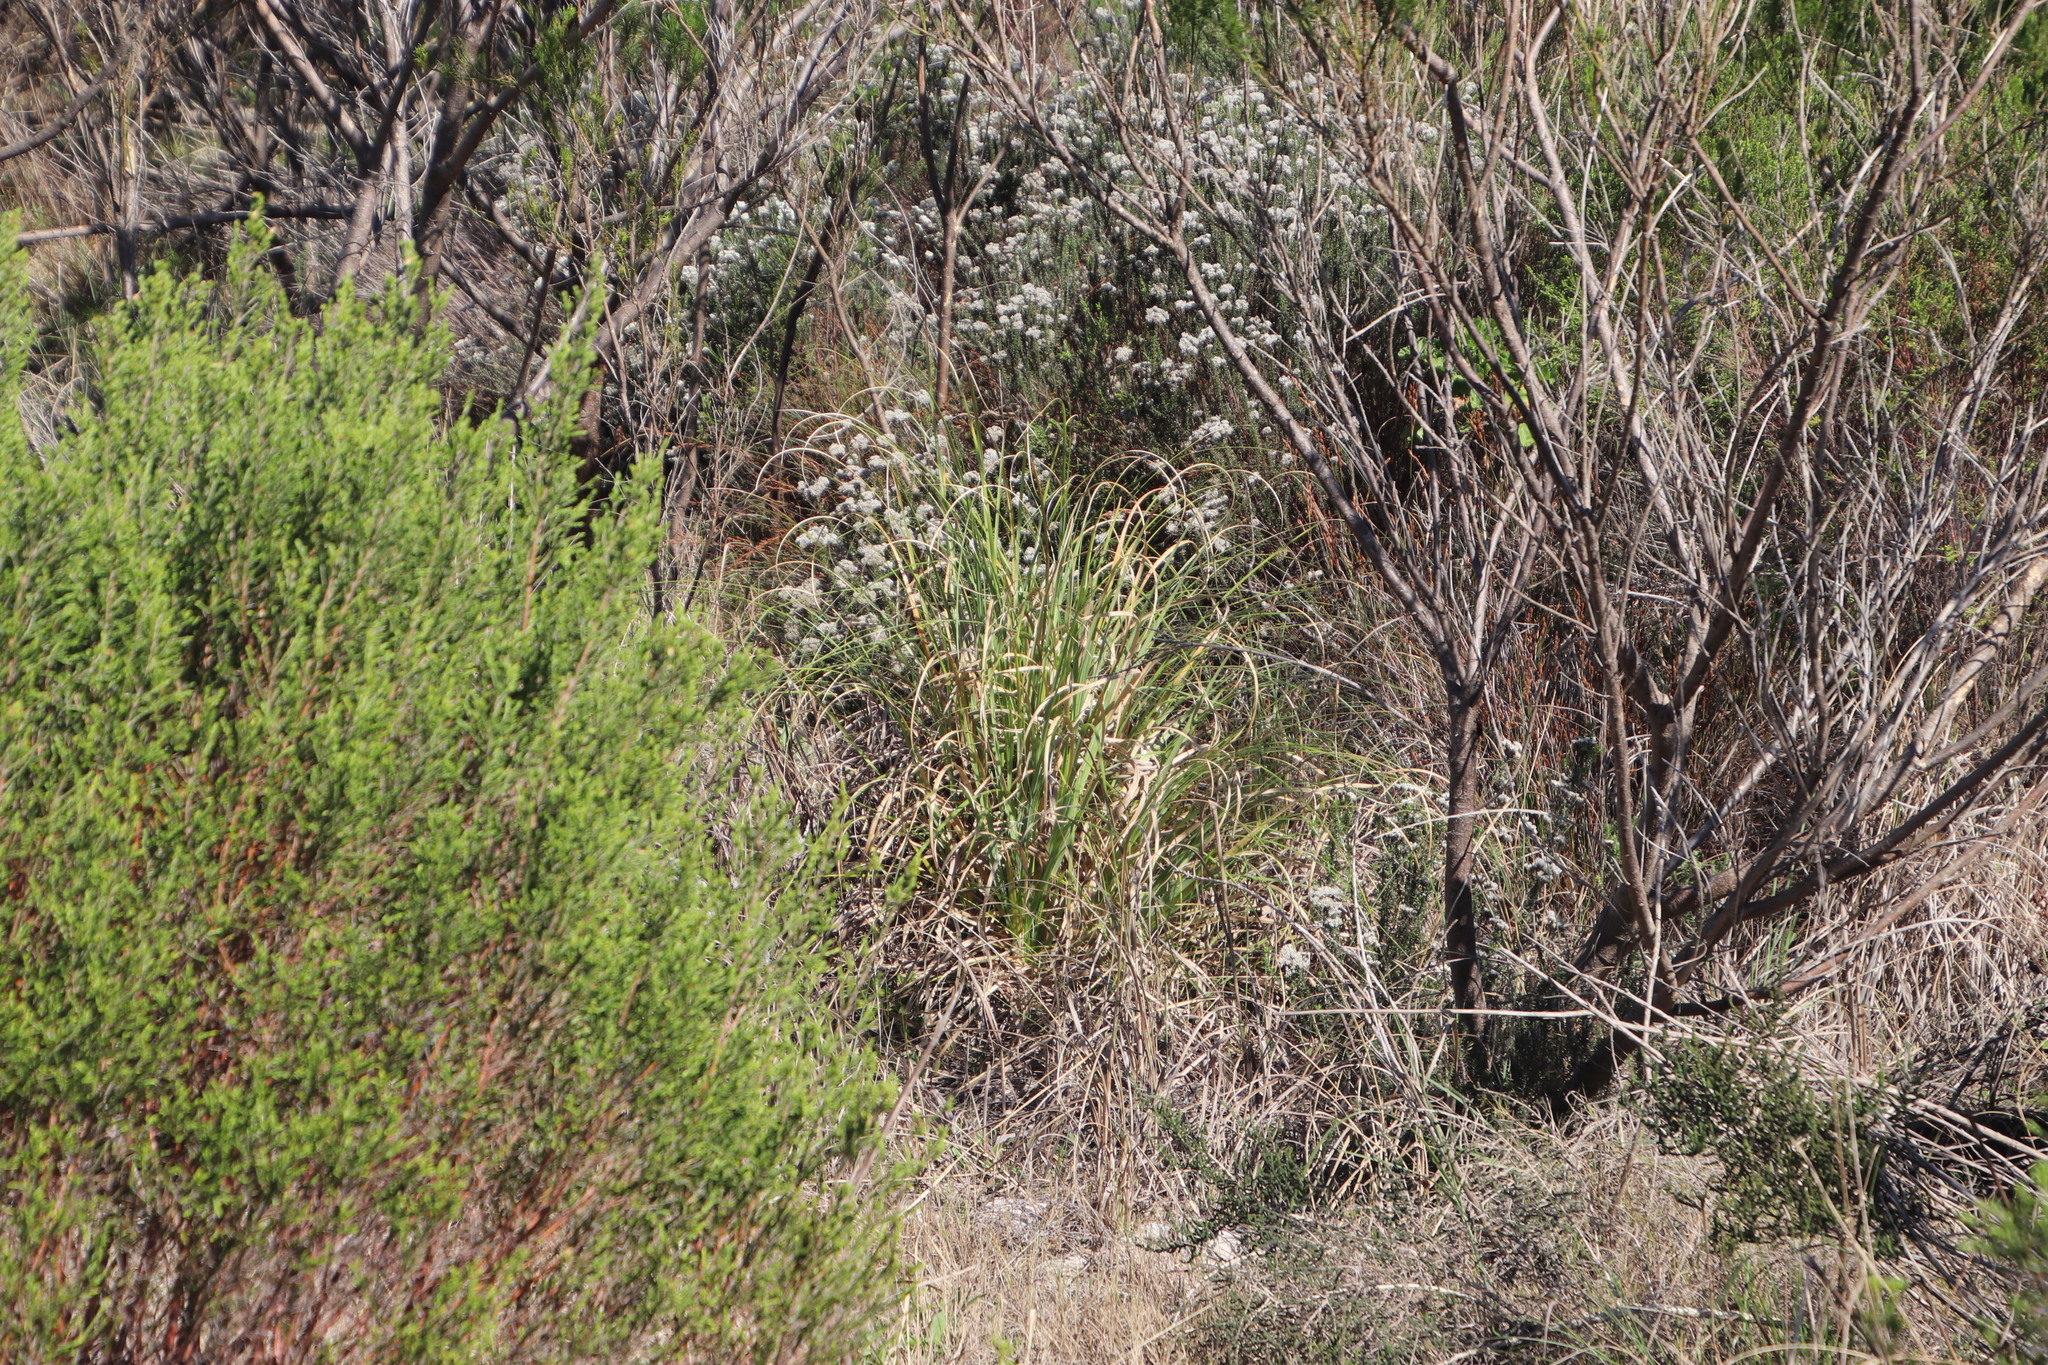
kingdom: Plantae
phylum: Tracheophyta
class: Liliopsida
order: Poales
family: Poaceae
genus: Cortaderia
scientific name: Cortaderia selloana
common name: Uruguayan pampas grass
